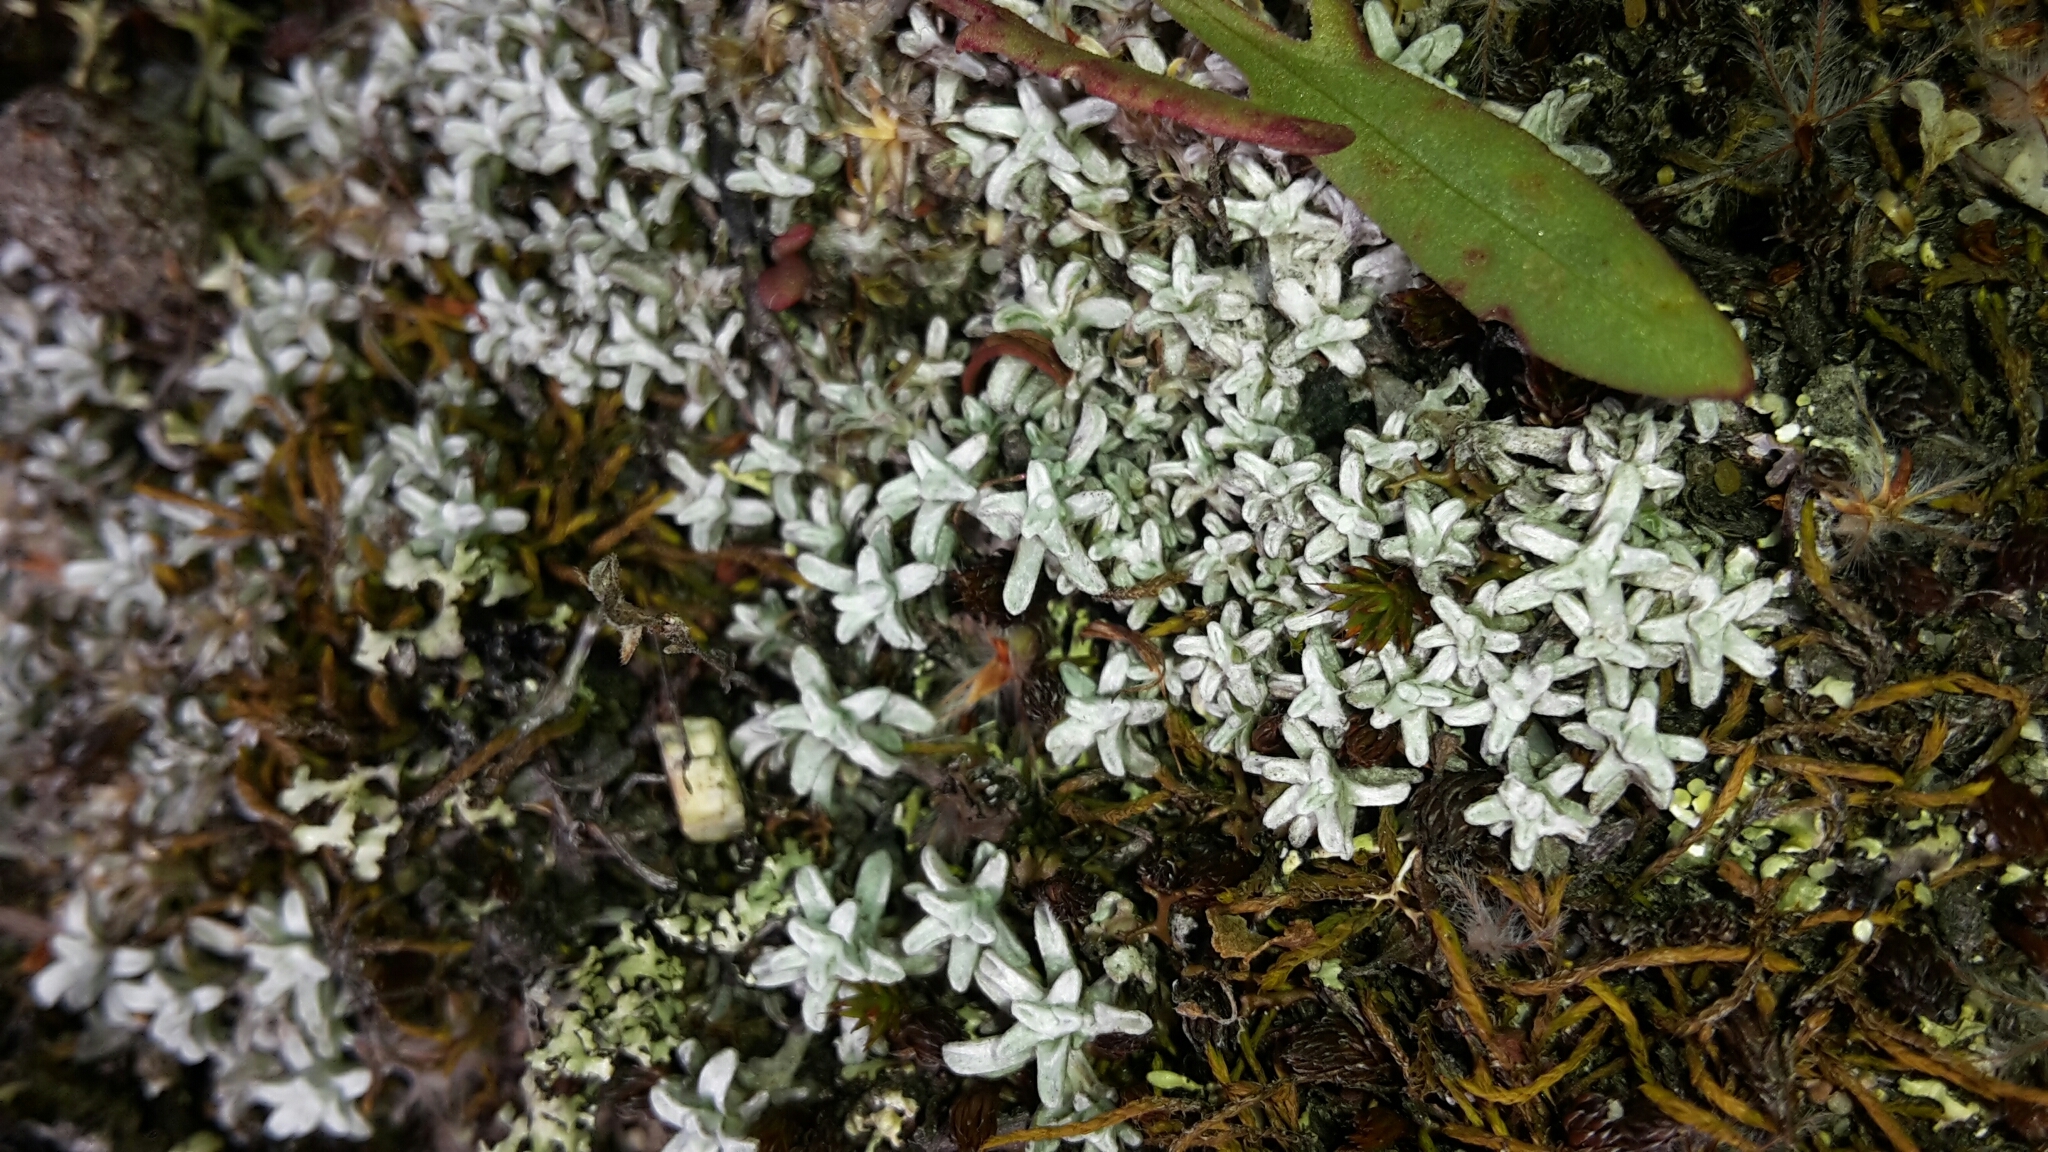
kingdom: Plantae
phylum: Tracheophyta
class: Magnoliopsida
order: Asterales
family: Asteraceae
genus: Raoulia
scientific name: Raoulia beauverdii
